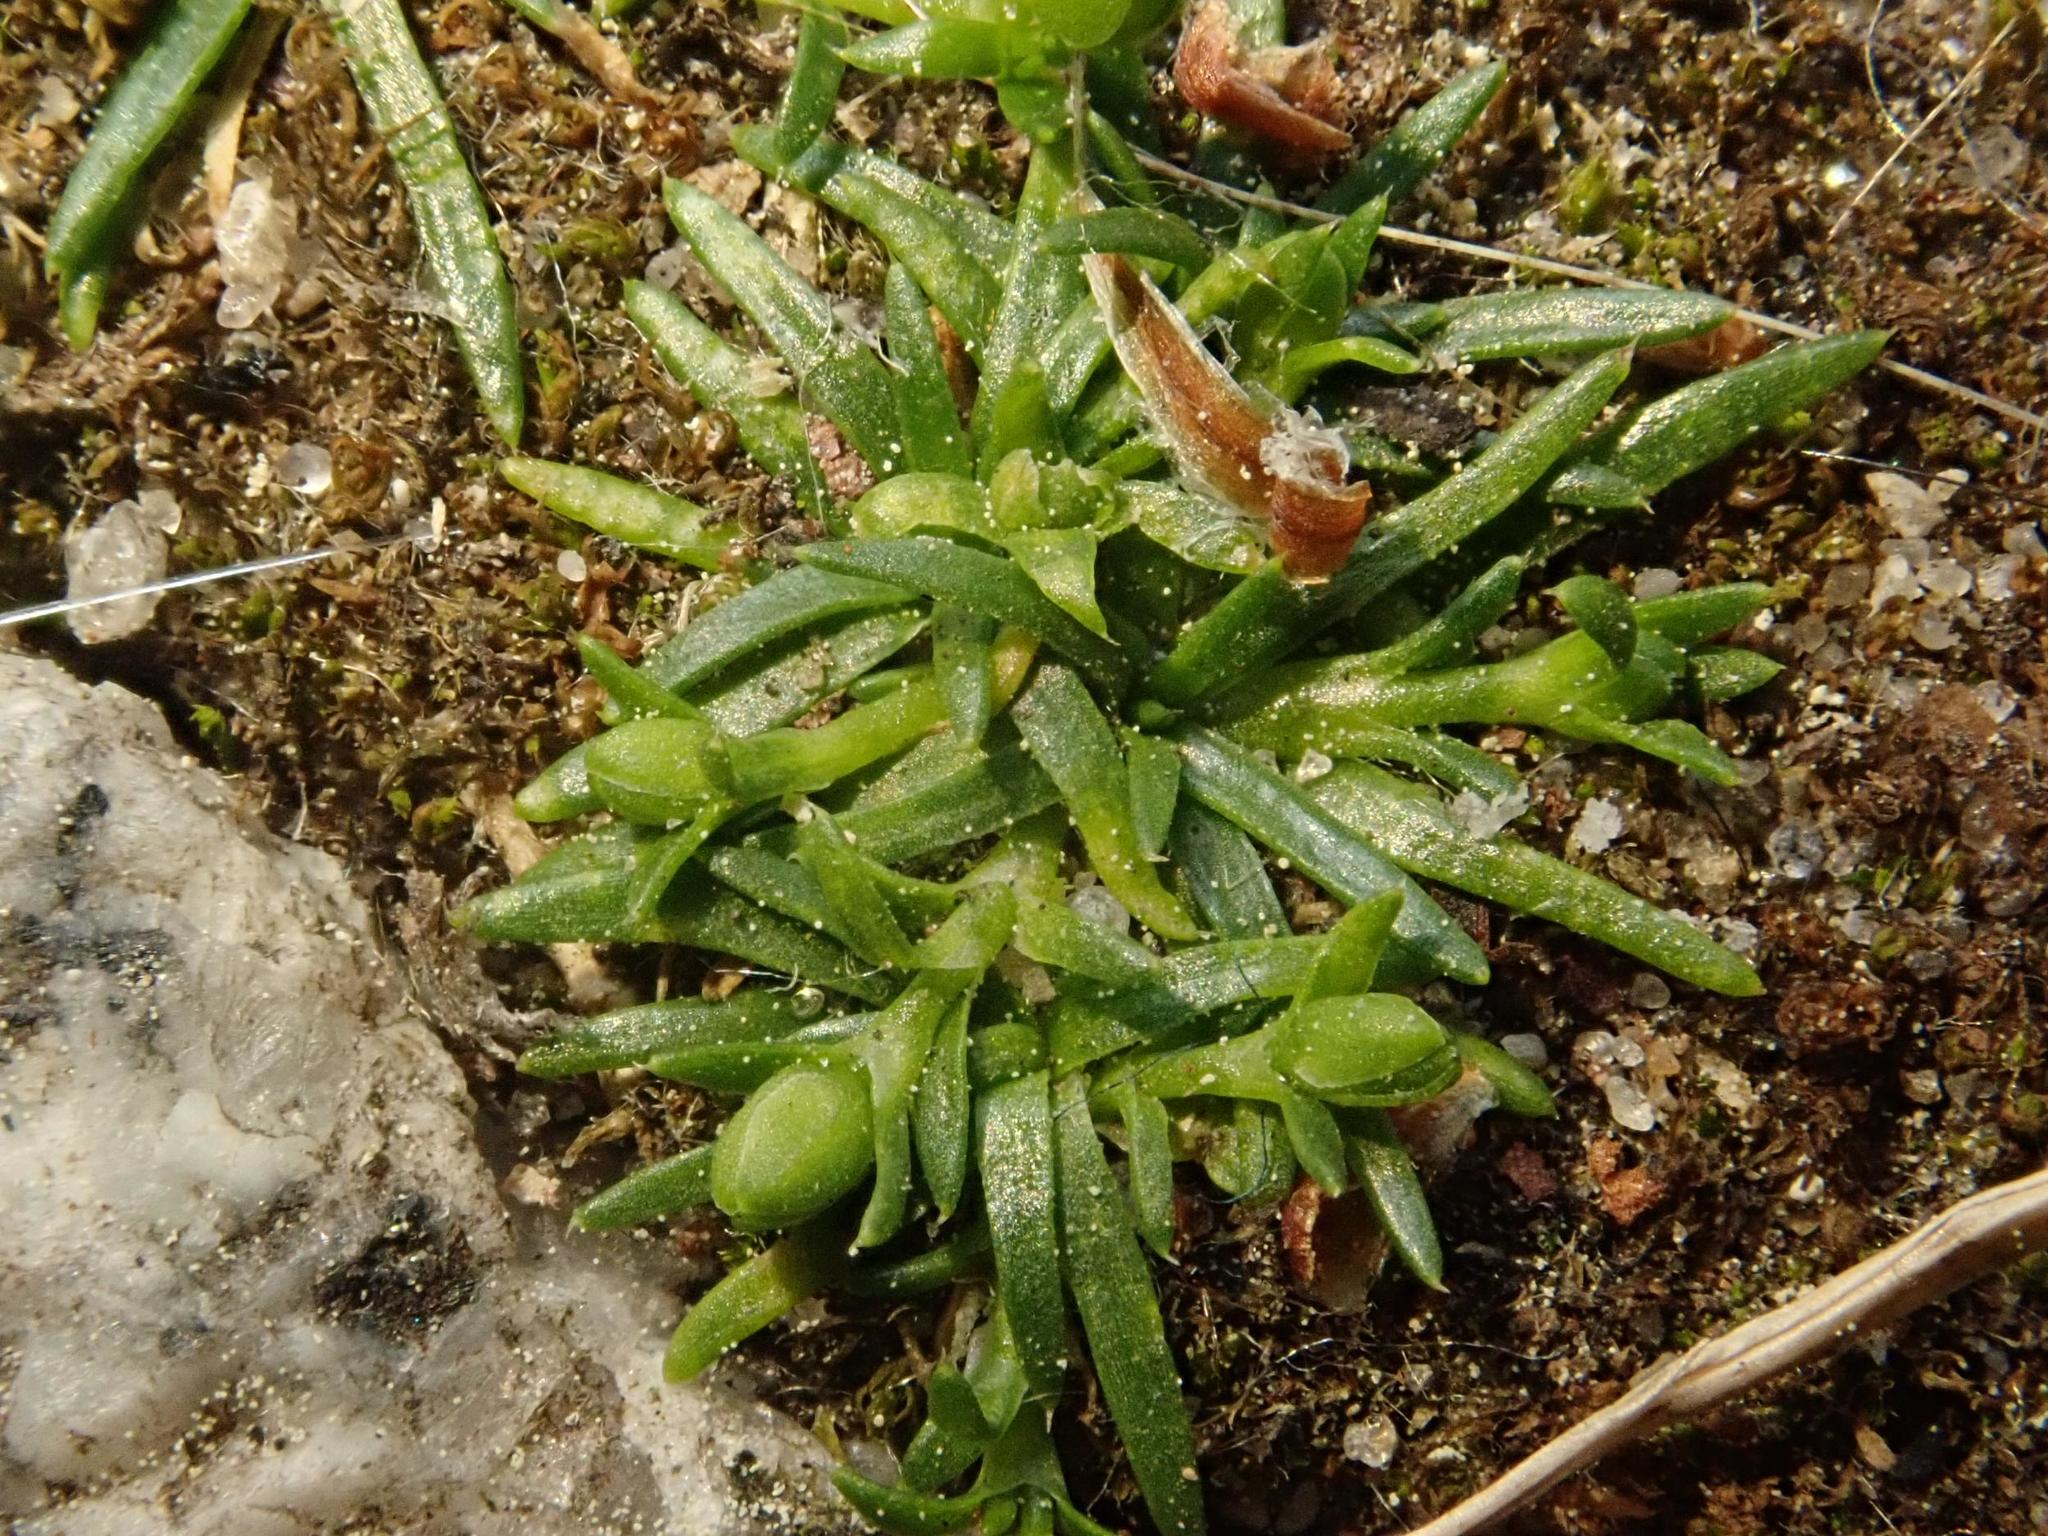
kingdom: Plantae
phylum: Tracheophyta
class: Magnoliopsida
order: Caryophyllales
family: Caryophyllaceae
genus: Sagina
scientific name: Sagina procumbens
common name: Procumbent pearlwort
